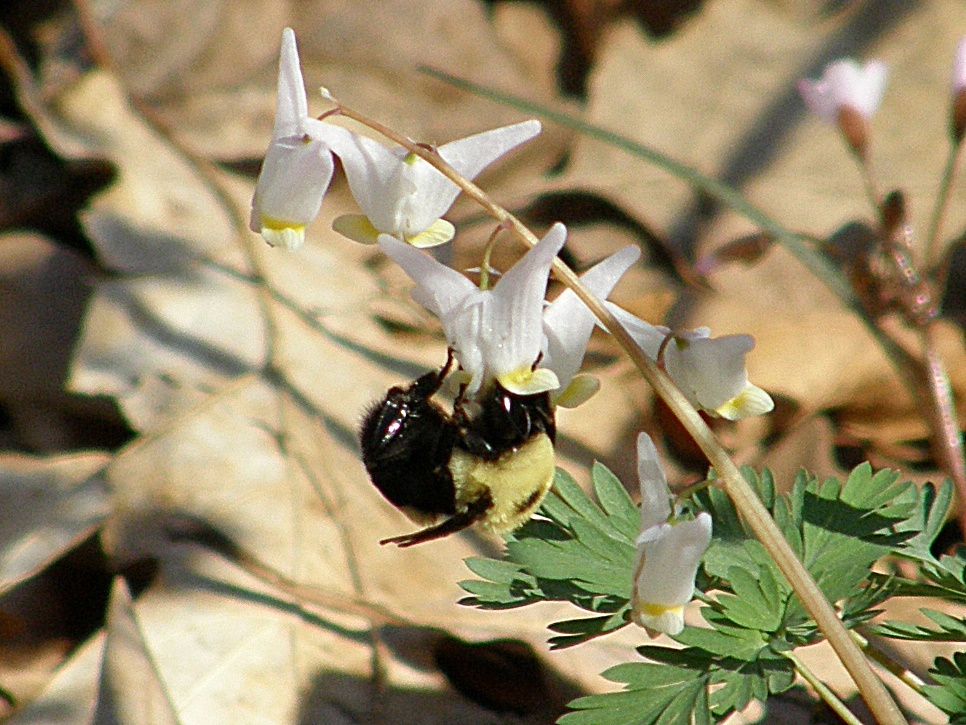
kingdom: Animalia
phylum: Arthropoda
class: Insecta
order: Hymenoptera
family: Apidae
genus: Bombus
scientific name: Bombus bimaculatus
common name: Two-spotted bumble bee
